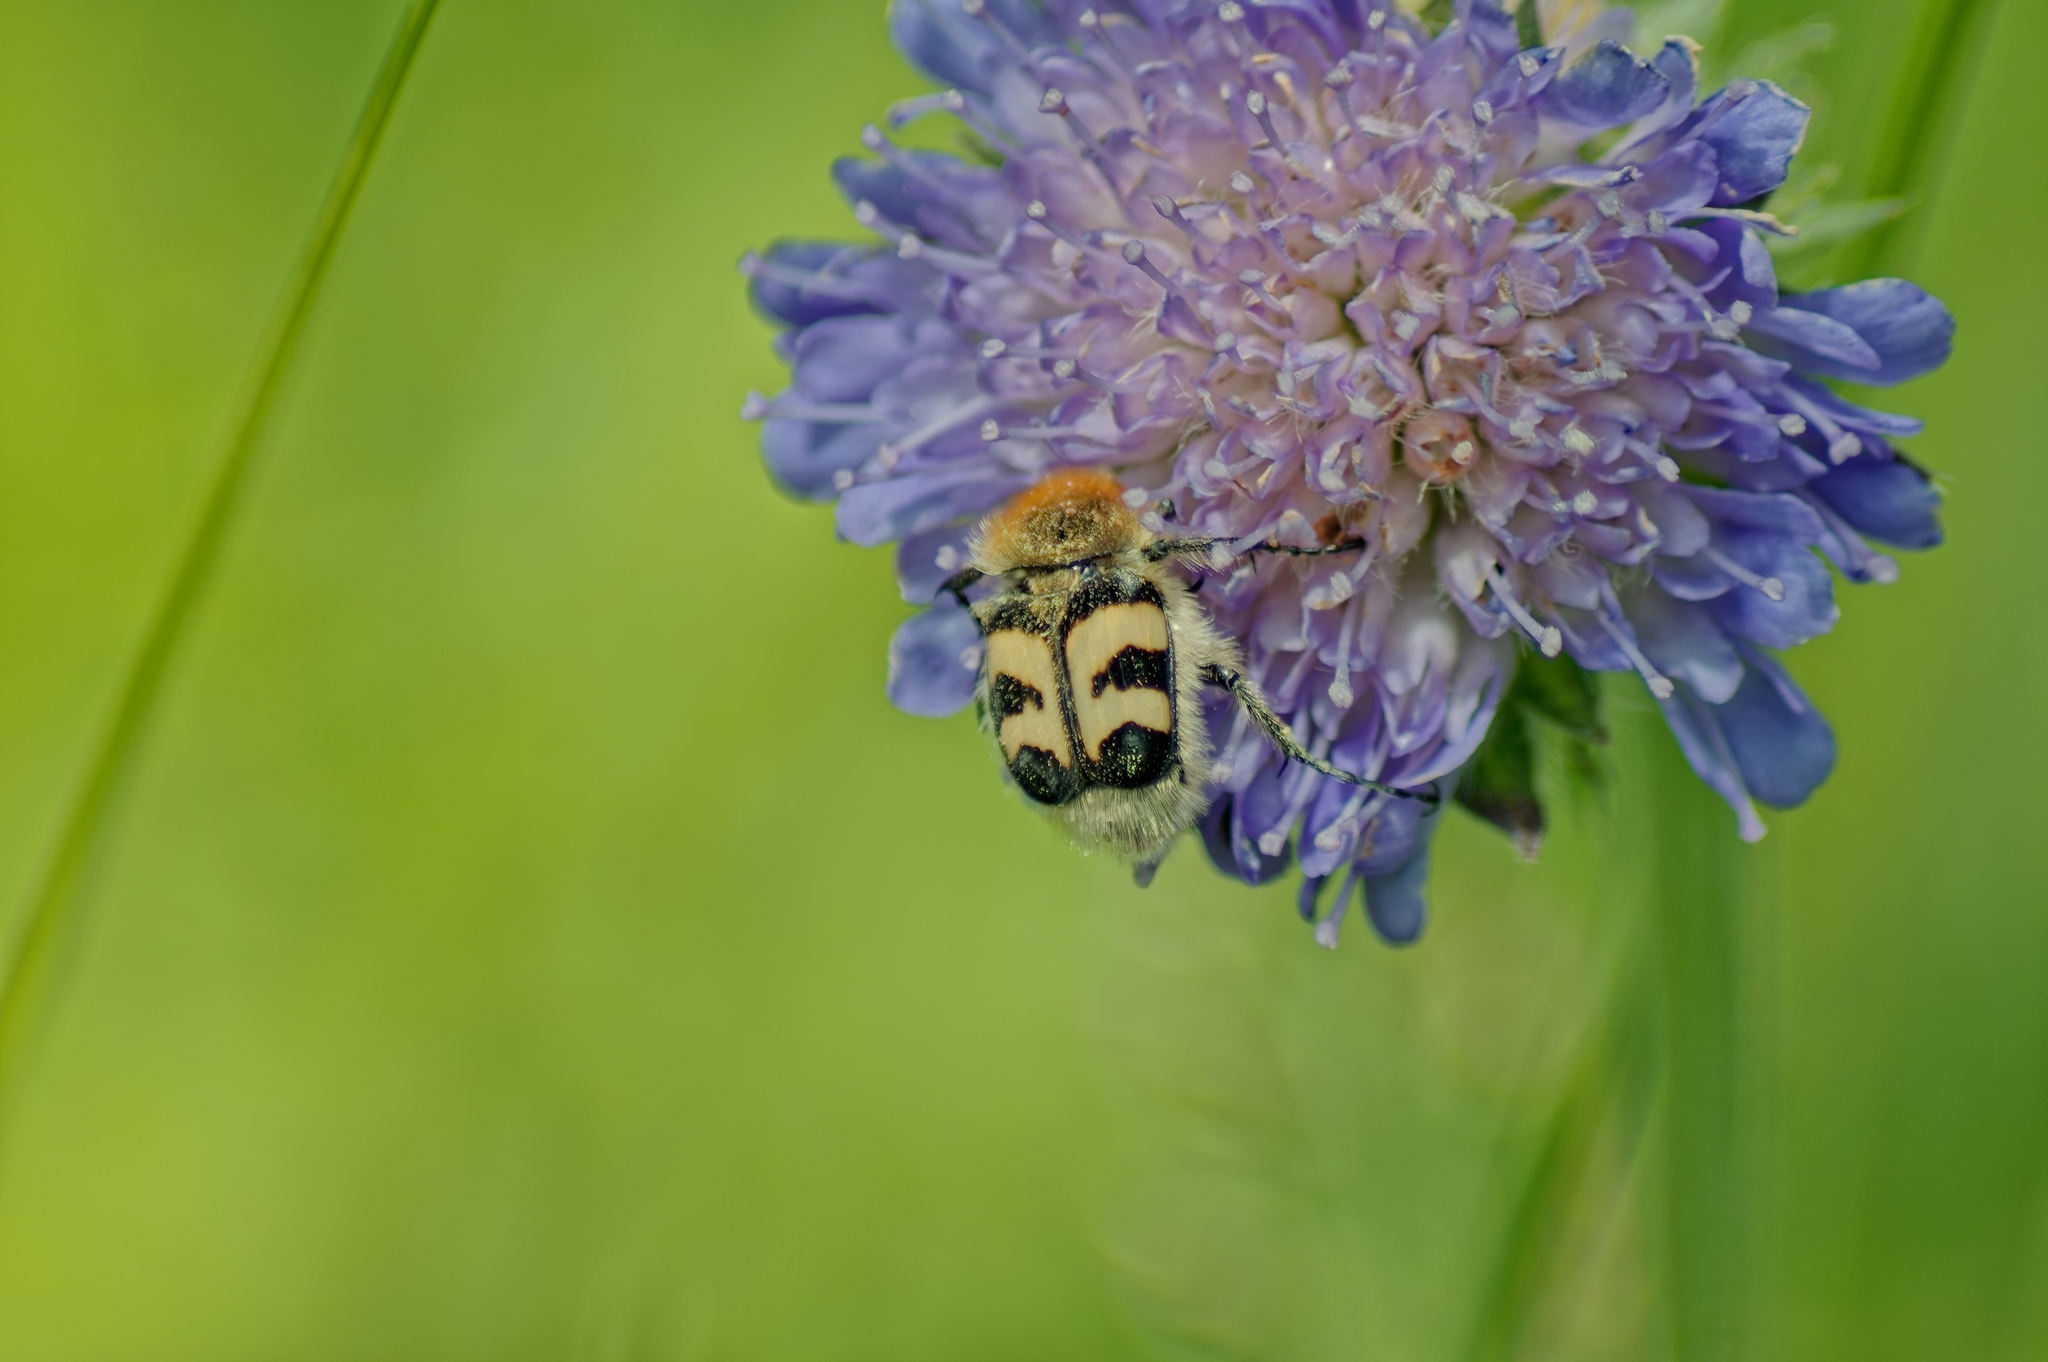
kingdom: Animalia
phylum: Arthropoda
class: Insecta
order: Coleoptera
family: Scarabaeidae
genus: Trichius
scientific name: Trichius fasciatus
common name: Bee beetle
